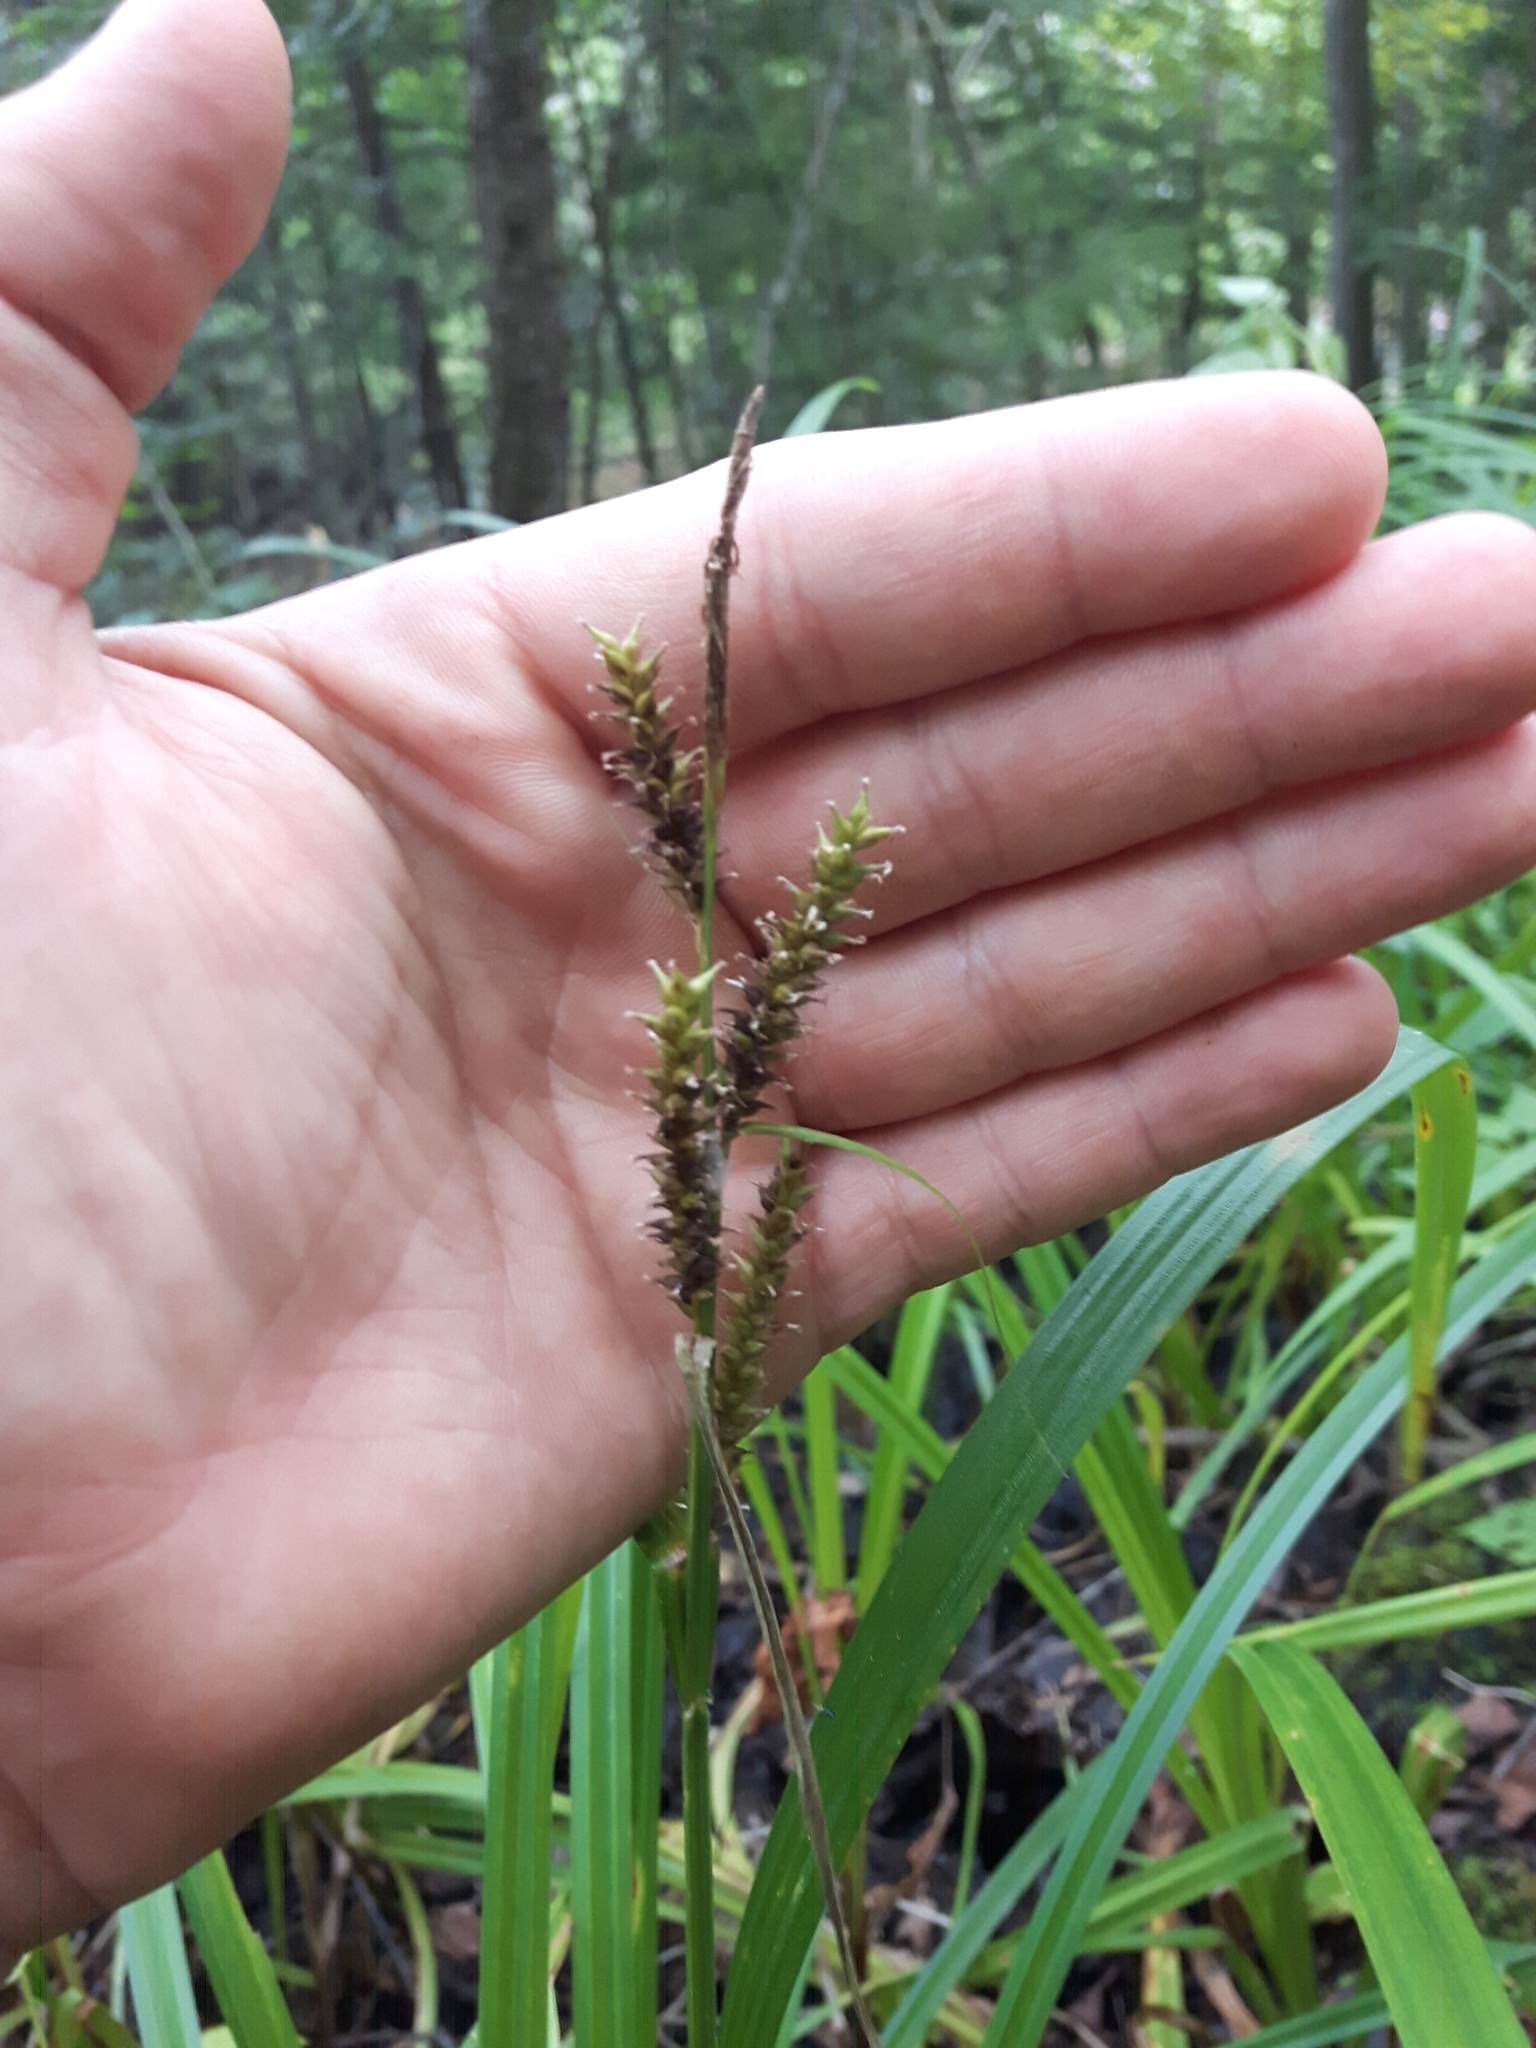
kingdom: Plantae
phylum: Tracheophyta
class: Liliopsida
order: Poales
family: Cyperaceae
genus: Carex
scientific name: Carex scabrata
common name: Eastern rough sedge
